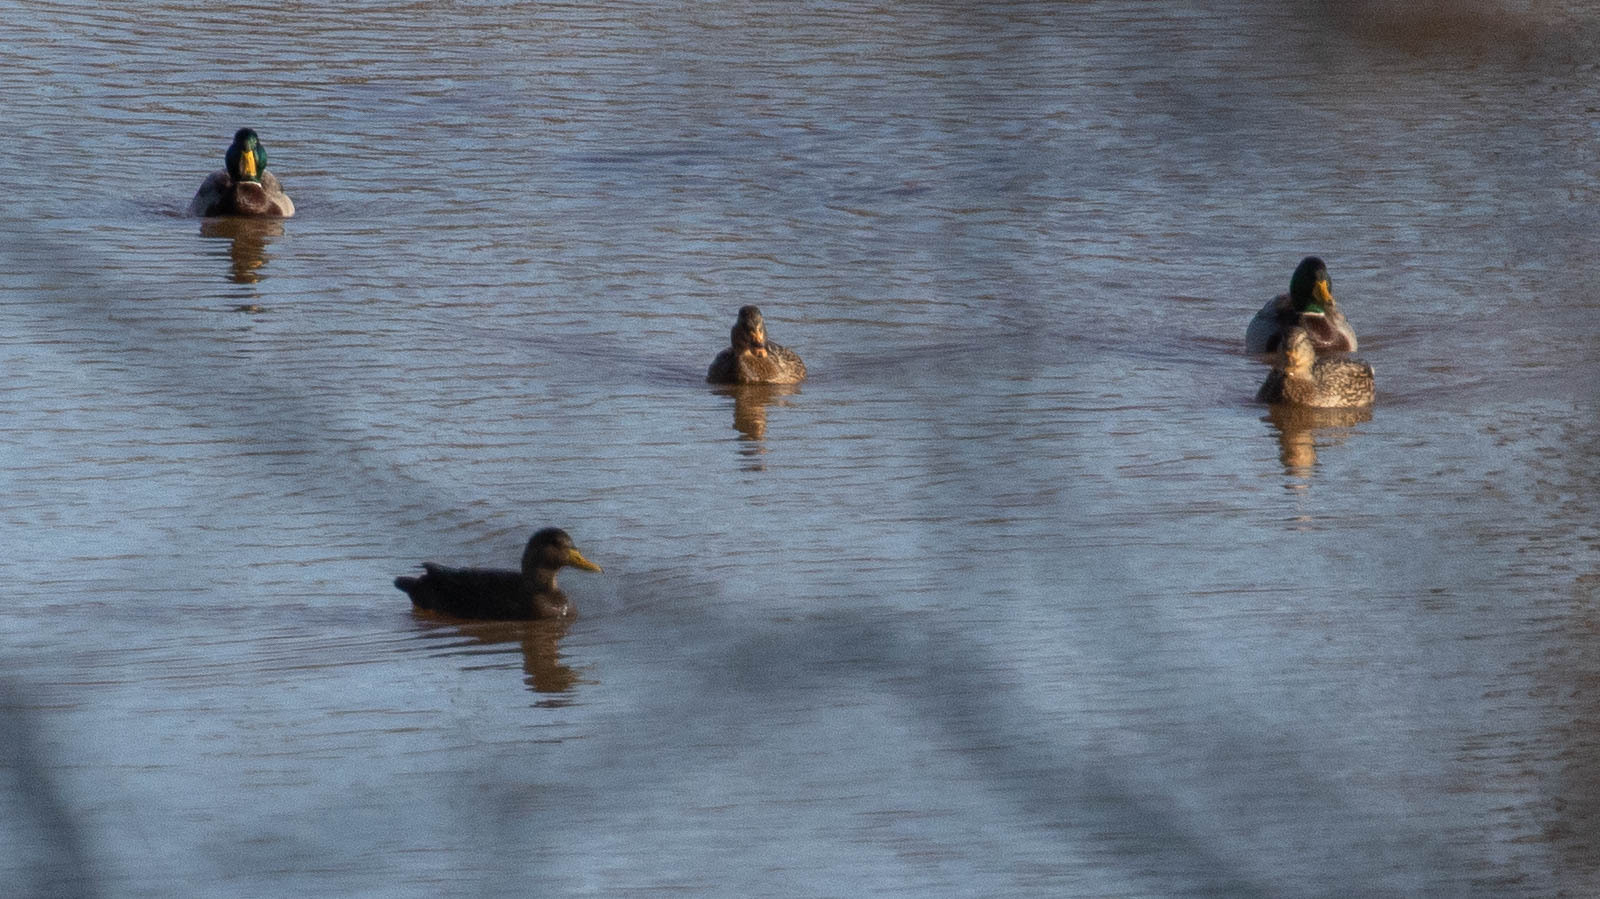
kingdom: Animalia
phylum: Chordata
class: Aves
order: Anseriformes
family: Anatidae
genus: Anas
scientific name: Anas rubripes
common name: American black duck
